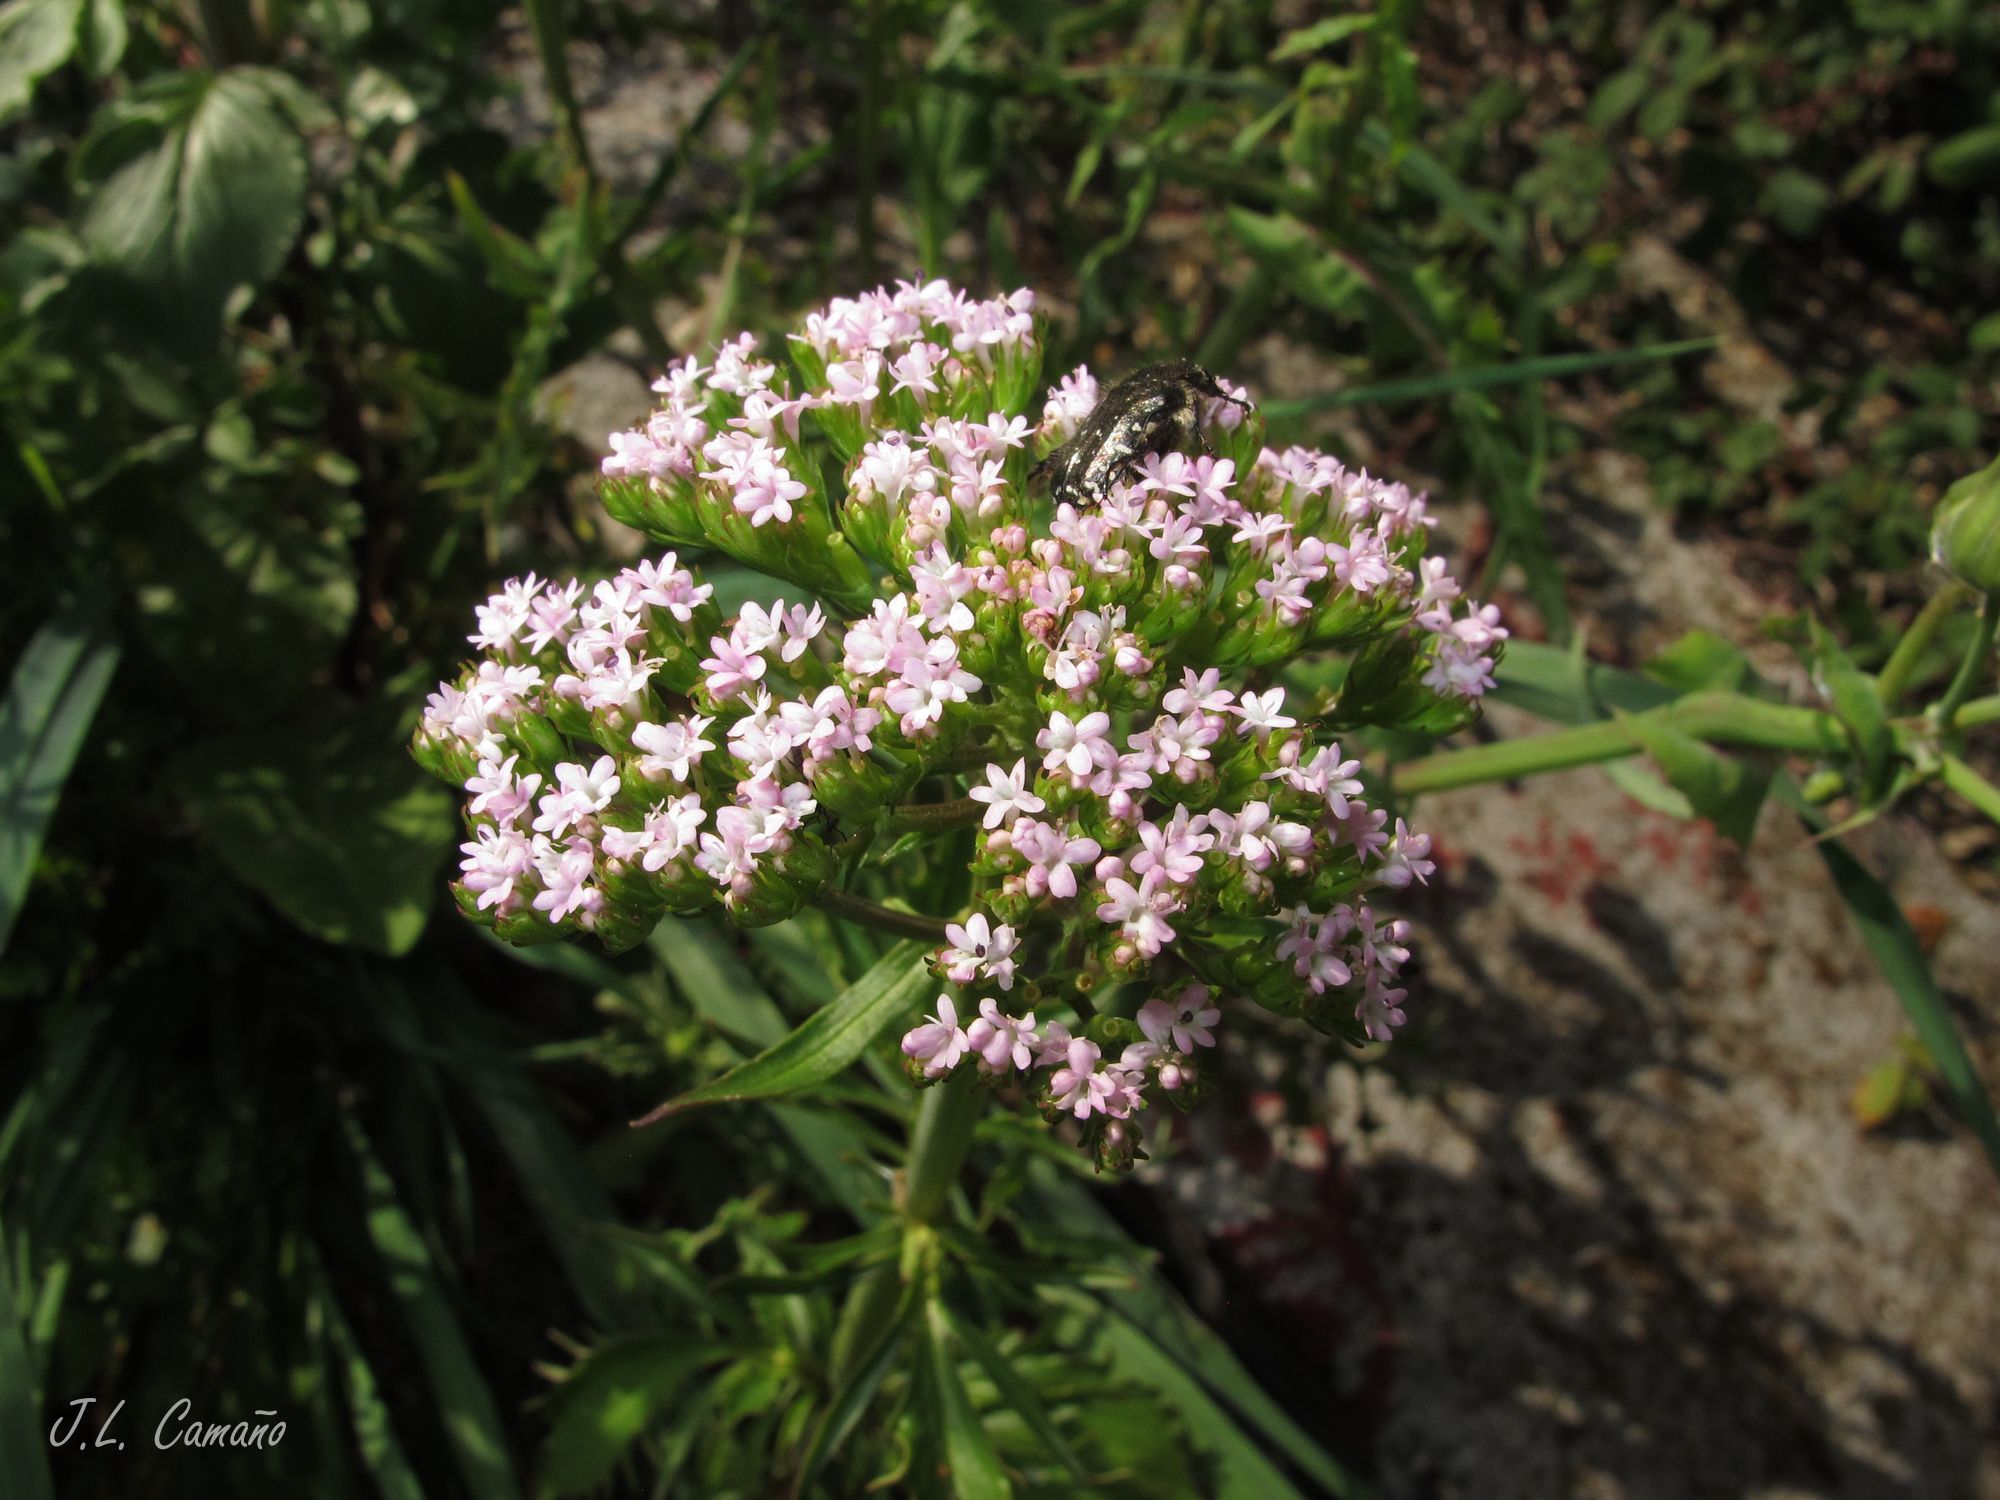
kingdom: Plantae
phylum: Tracheophyta
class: Magnoliopsida
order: Dipsacales
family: Caprifoliaceae
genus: Centranthus
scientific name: Centranthus calcitrapae
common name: Annual valerian
